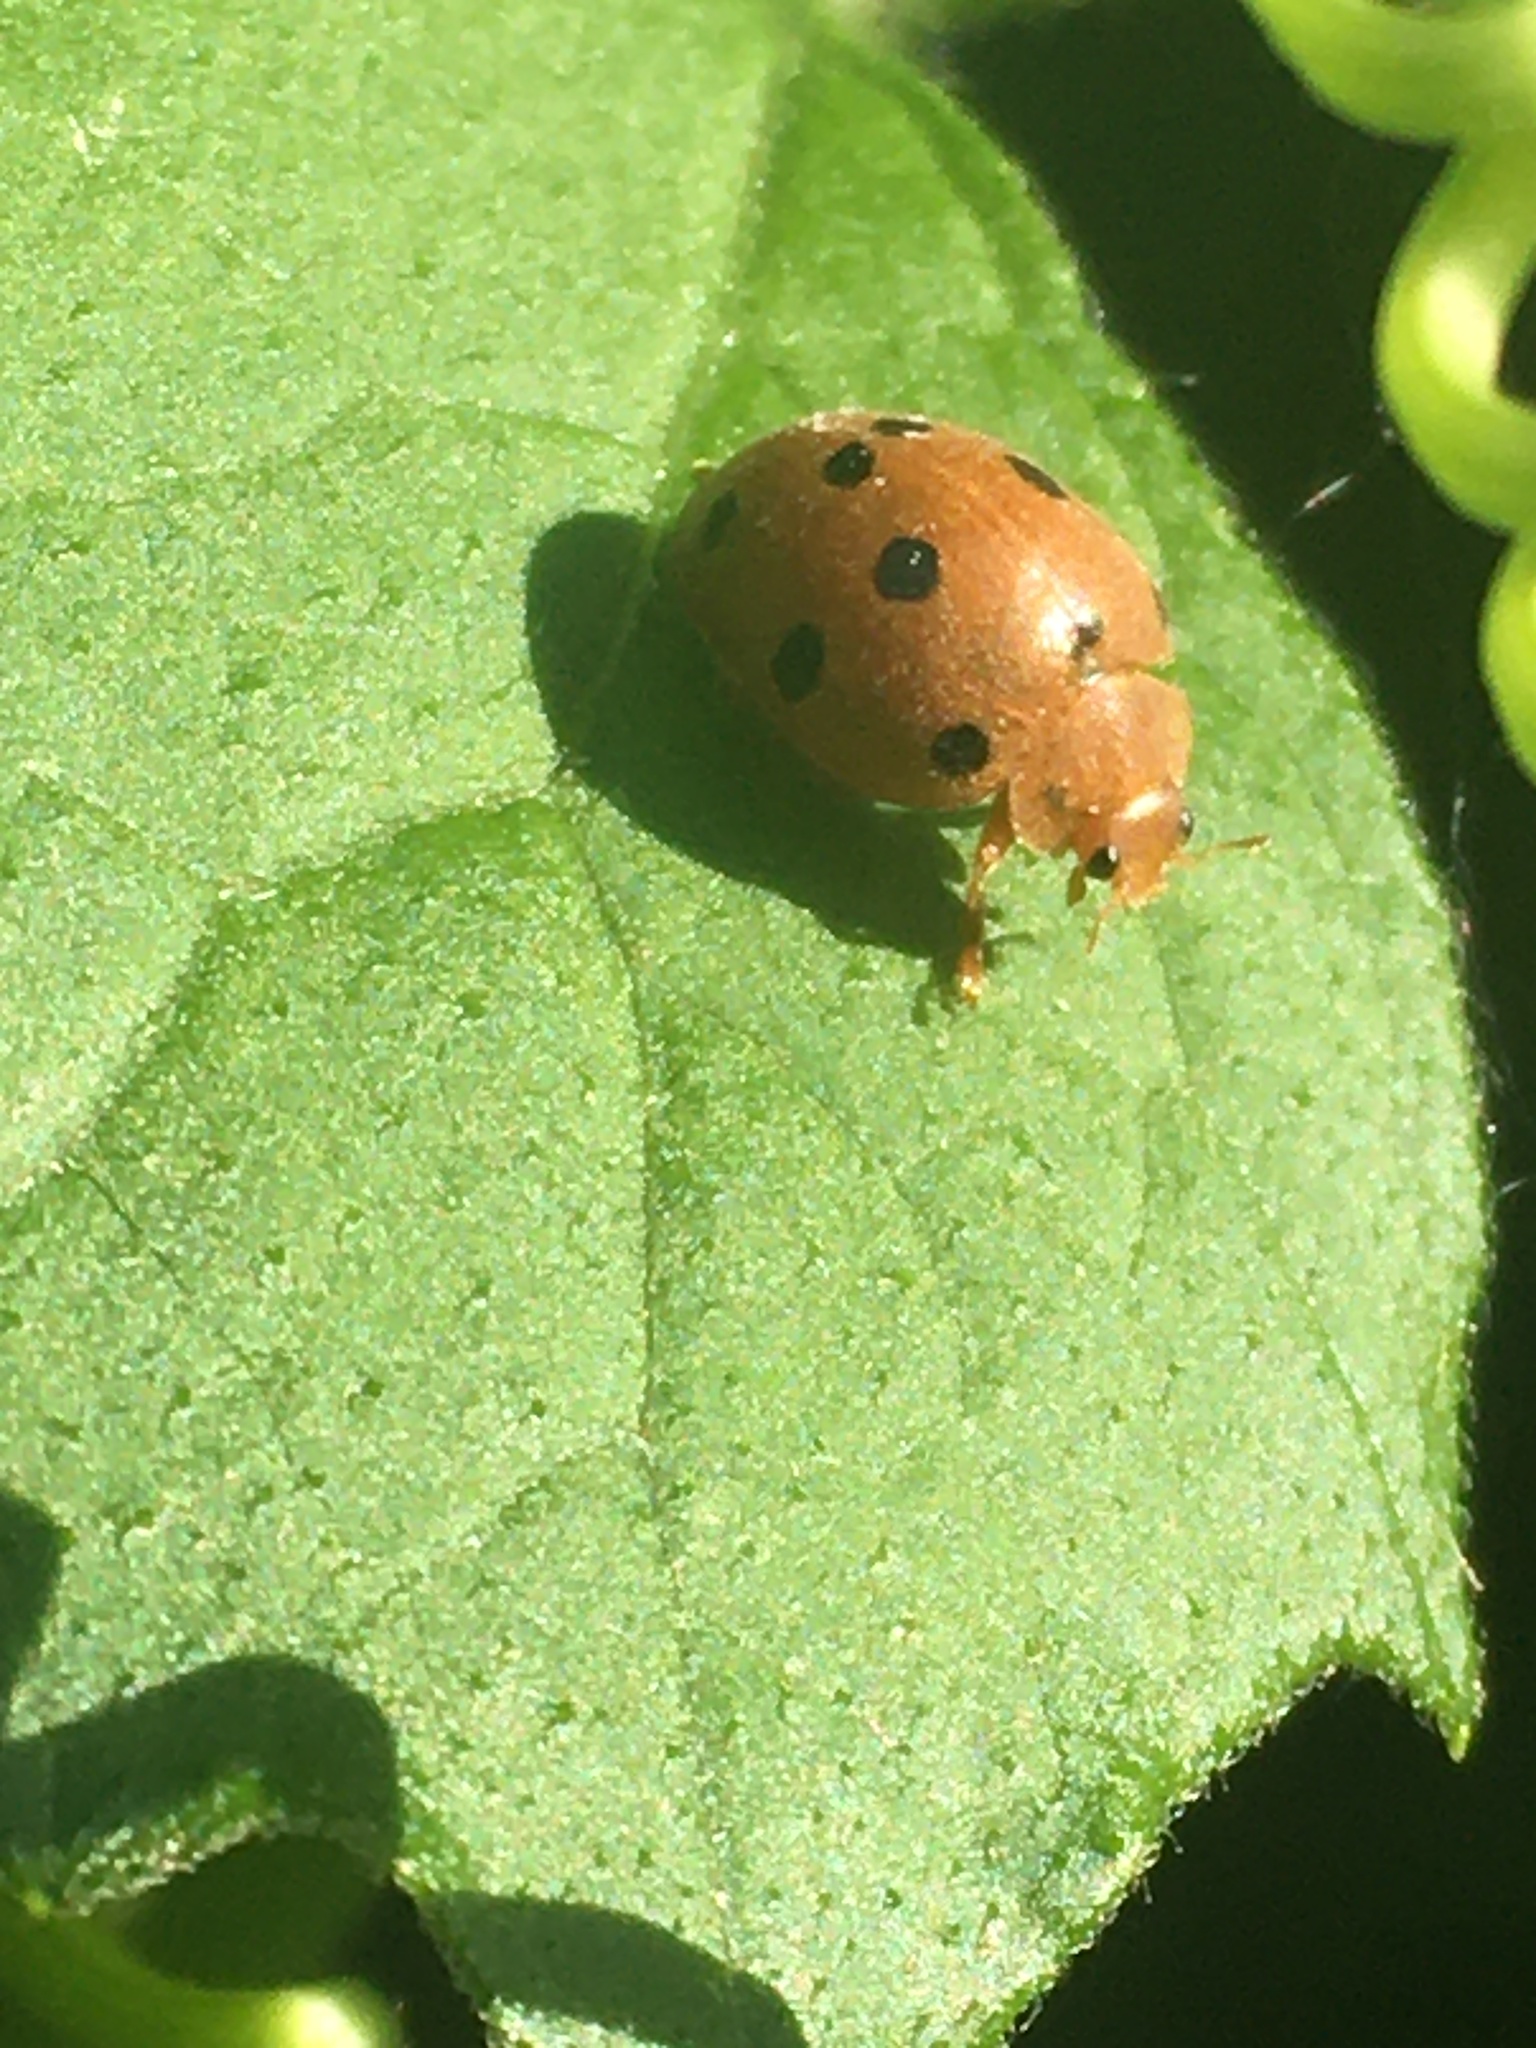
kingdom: Animalia
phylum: Arthropoda
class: Insecta
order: Coleoptera
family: Coccinellidae
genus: Henosepilachna
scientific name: Henosepilachna argus
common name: Bryony ladybird
